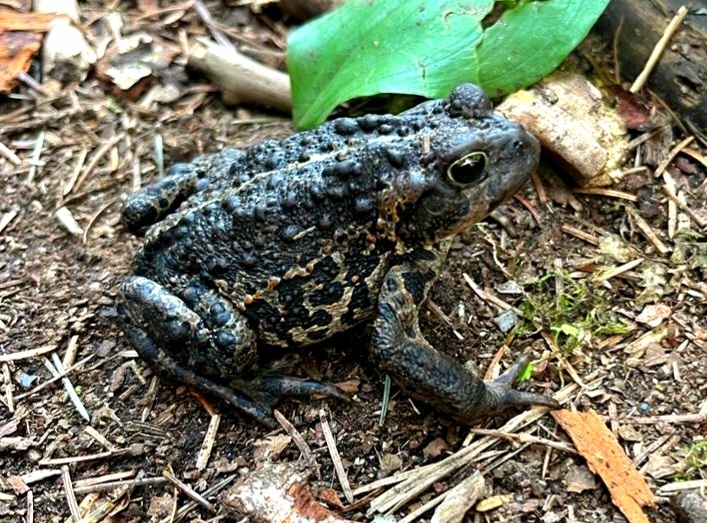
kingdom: Animalia
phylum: Chordata
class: Amphibia
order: Anura
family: Bufonidae
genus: Anaxyrus
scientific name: Anaxyrus boreas
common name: Western toad
